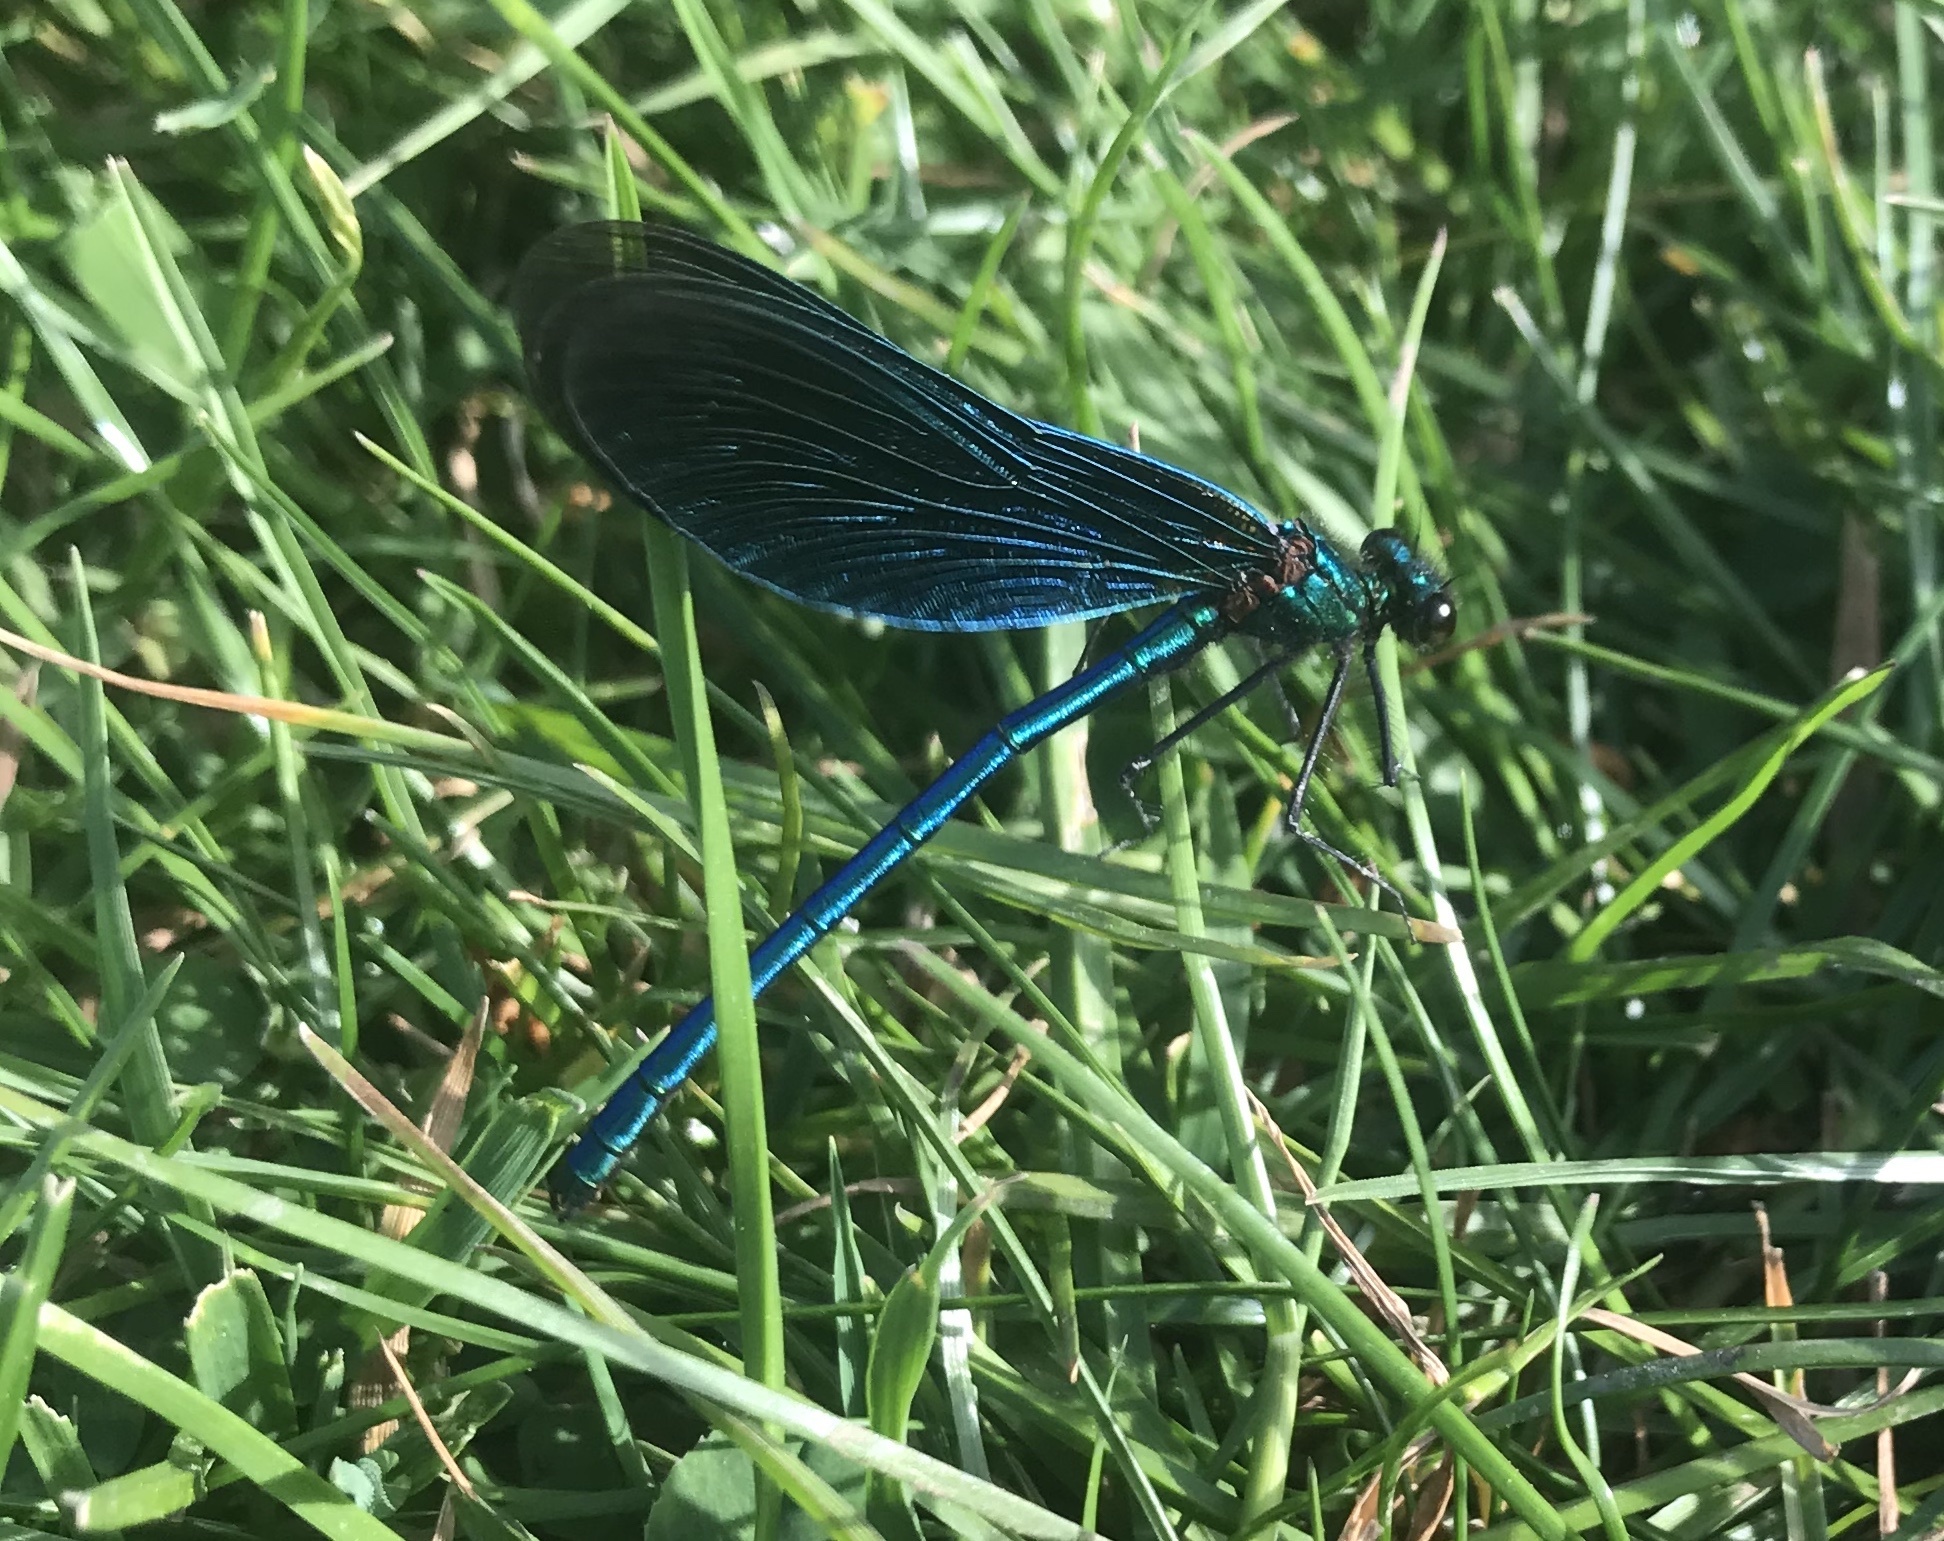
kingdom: Animalia
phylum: Arthropoda
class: Insecta
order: Odonata
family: Calopterygidae
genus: Calopteryx
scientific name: Calopteryx virgo
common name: Beautiful demoiselle
